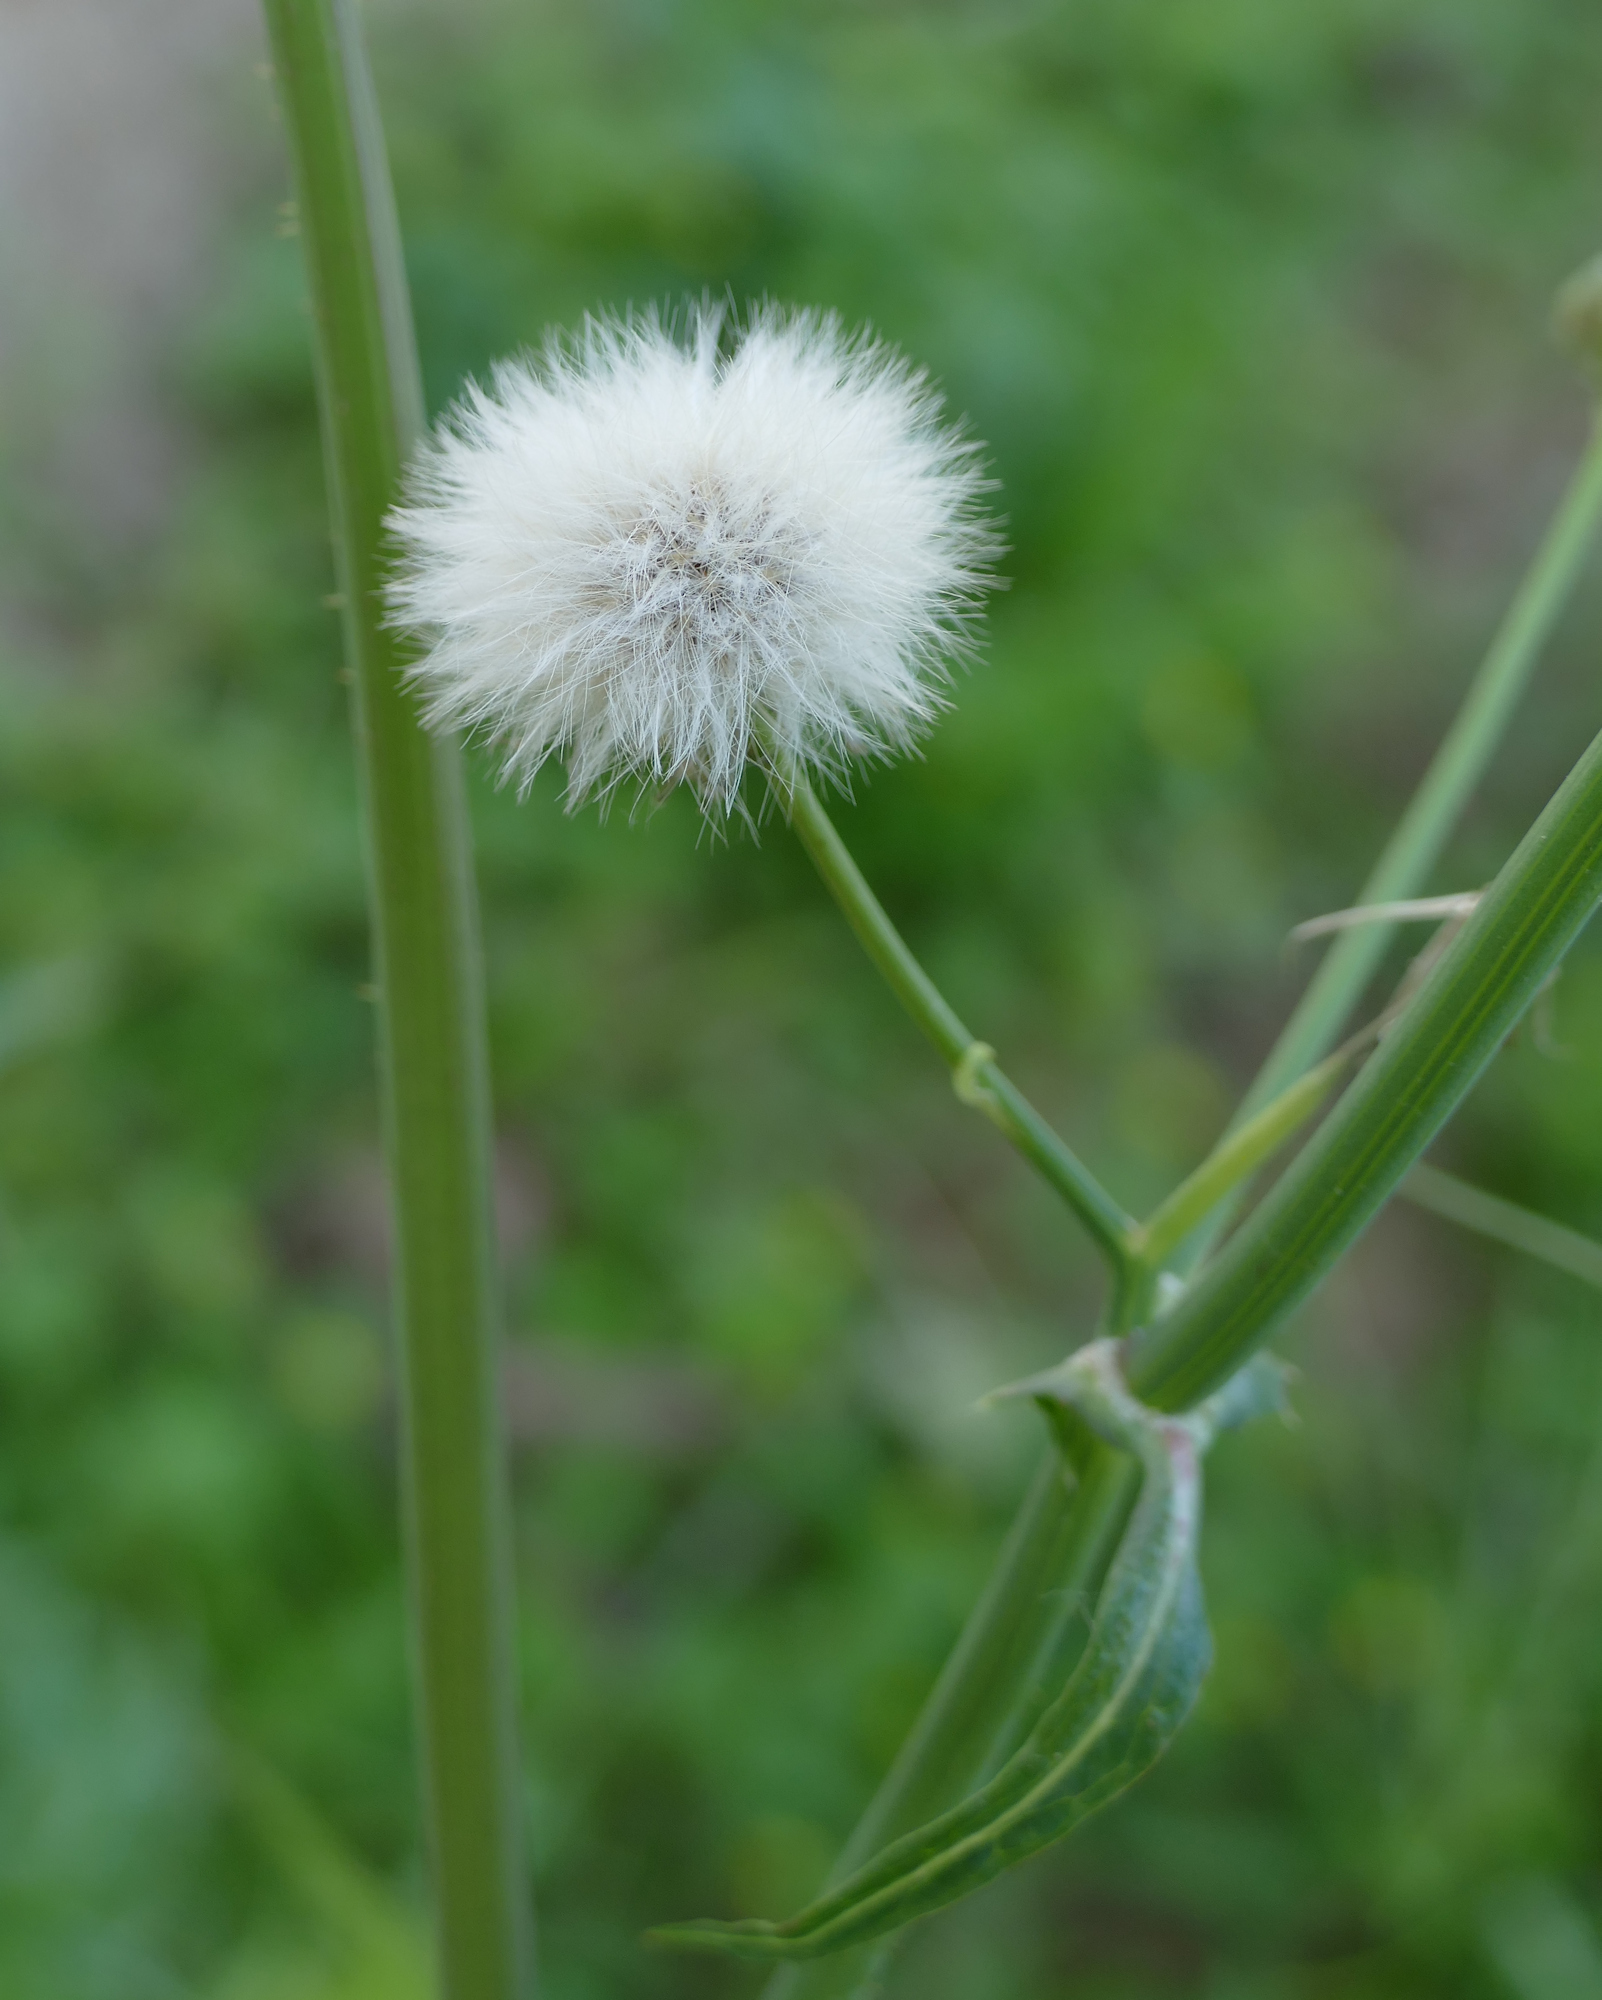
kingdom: Plantae
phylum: Tracheophyta
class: Magnoliopsida
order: Asterales
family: Asteraceae
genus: Sonchus
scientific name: Sonchus asper
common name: Prickly sow-thistle
